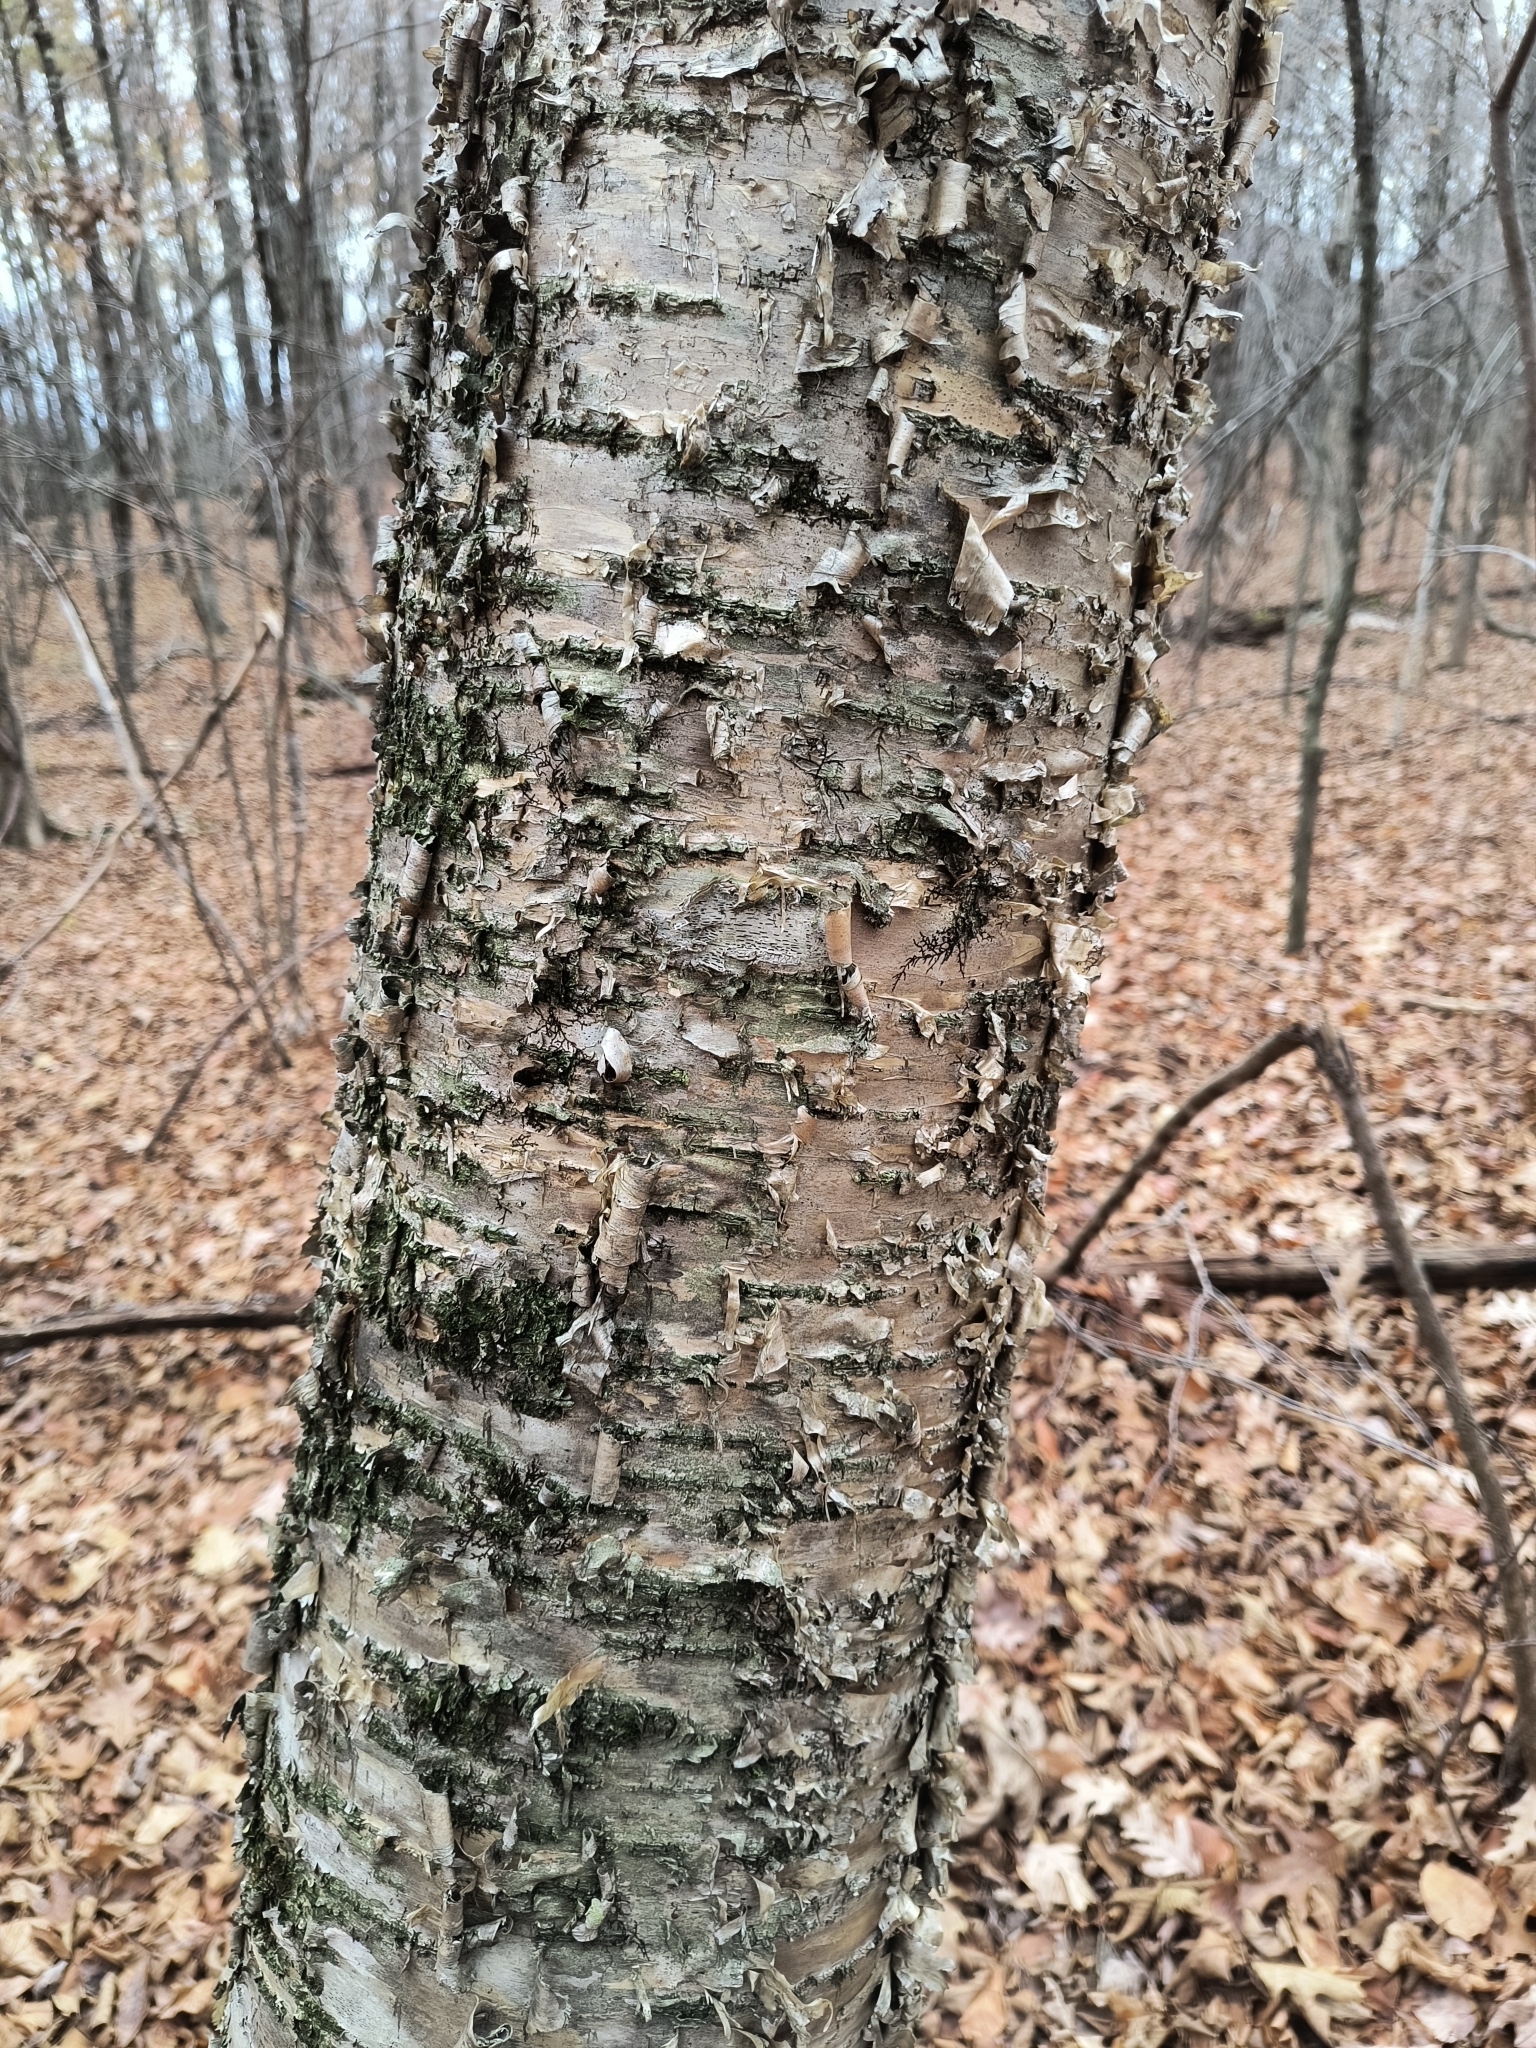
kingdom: Plantae
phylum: Tracheophyta
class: Magnoliopsida
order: Fagales
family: Betulaceae
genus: Betula
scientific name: Betula alleghaniensis
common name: Yellow birch
